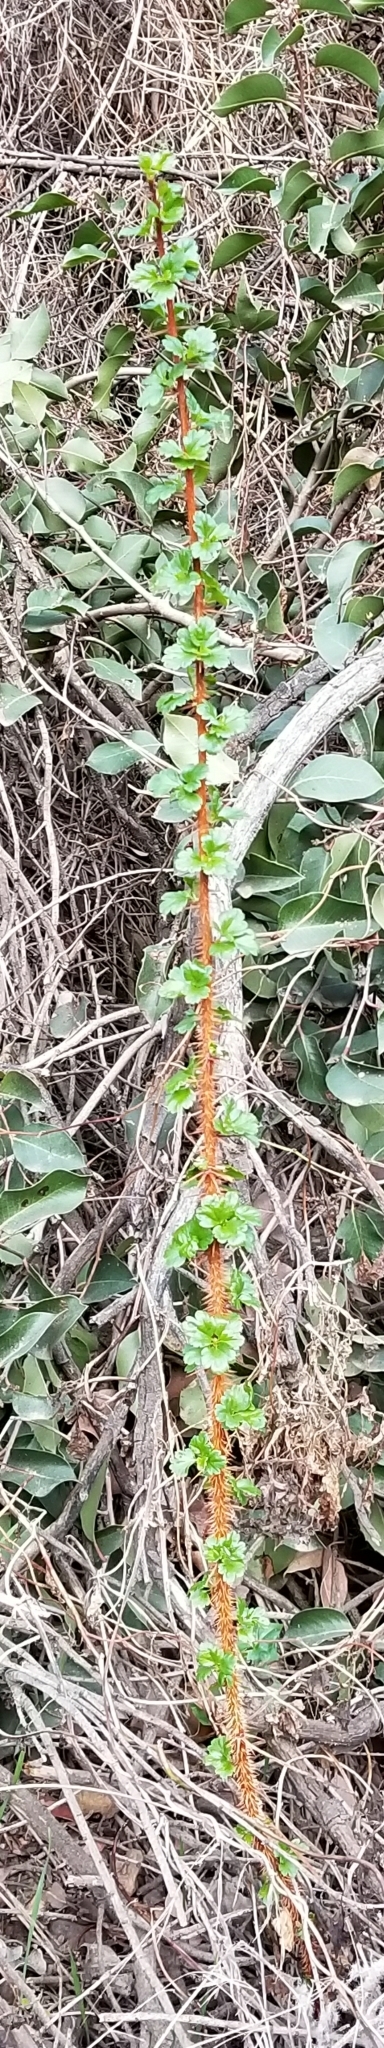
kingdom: Plantae
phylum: Tracheophyta
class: Magnoliopsida
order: Saxifragales
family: Grossulariaceae
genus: Ribes
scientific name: Ribes speciosum
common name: Fuchsia-flower gooseberry
